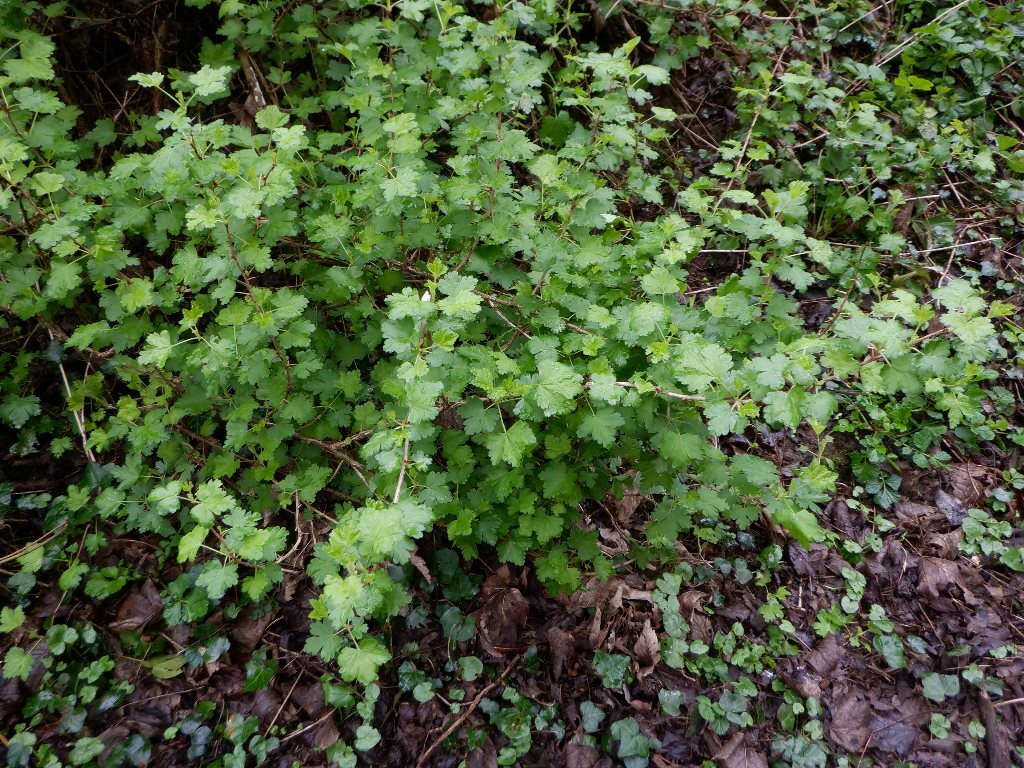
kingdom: Plantae
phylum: Tracheophyta
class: Magnoliopsida
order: Saxifragales
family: Grossulariaceae
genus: Ribes
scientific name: Ribes uva-crispa
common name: Gooseberry
